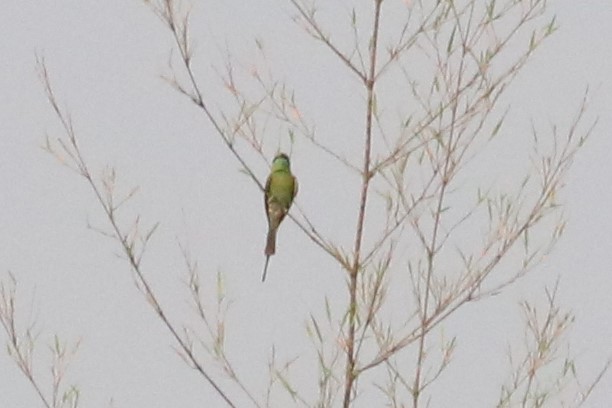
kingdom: Animalia
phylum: Chordata
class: Aves
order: Coraciiformes
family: Meropidae
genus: Merops
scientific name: Merops orientalis
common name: Green bee-eater
